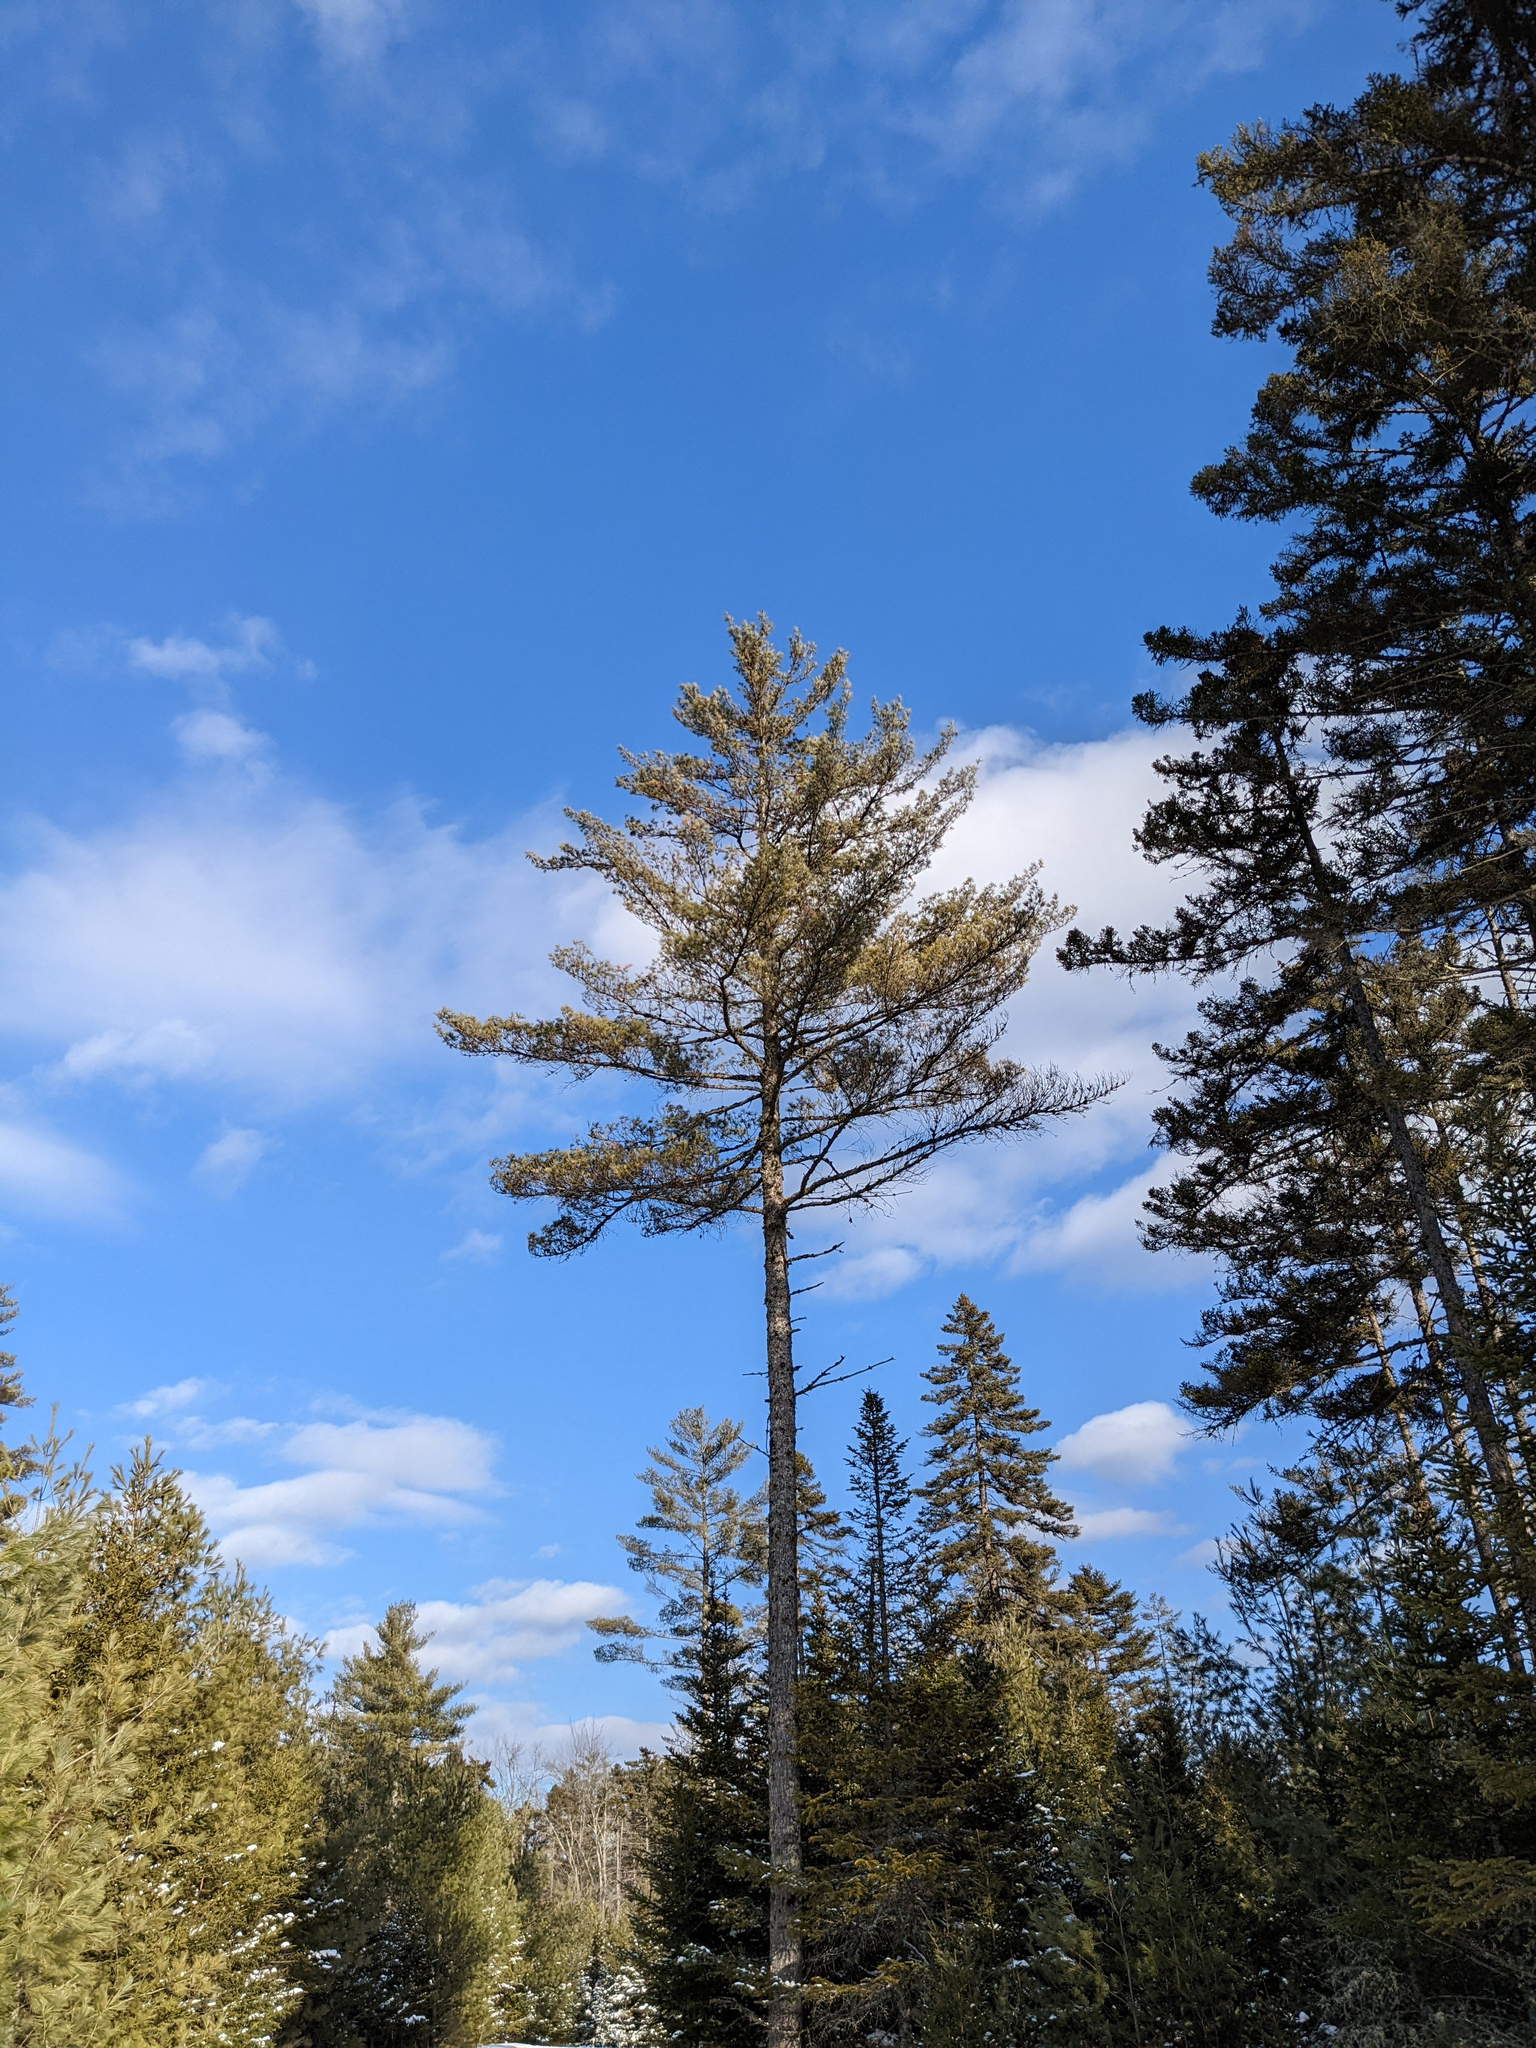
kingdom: Plantae
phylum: Tracheophyta
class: Pinopsida
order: Pinales
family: Pinaceae
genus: Pinus
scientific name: Pinus strobus
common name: Weymouth pine
